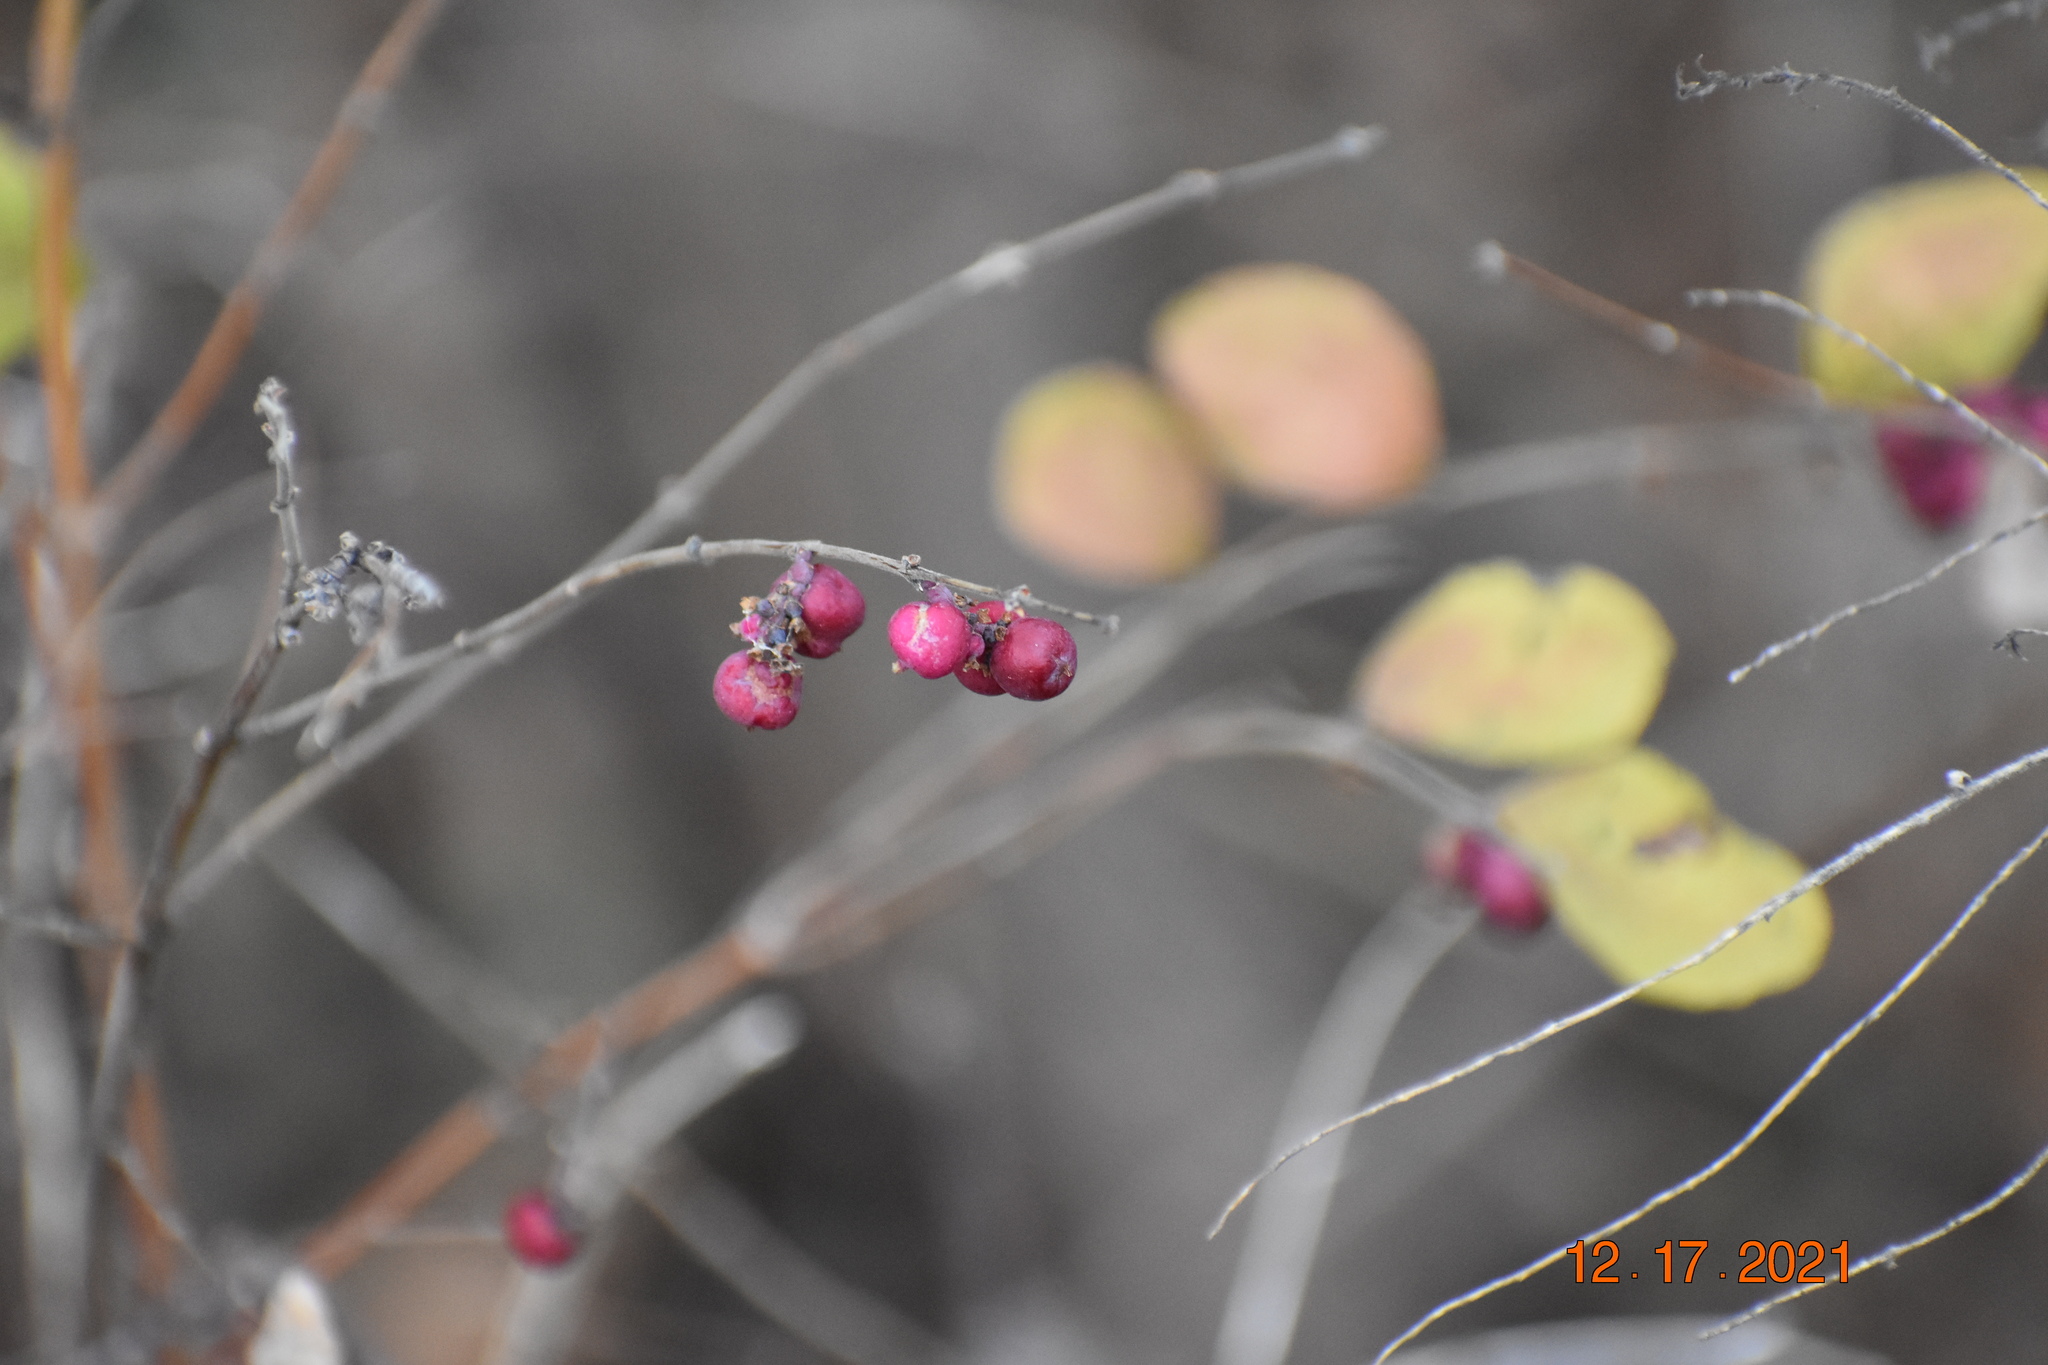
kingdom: Plantae
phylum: Tracheophyta
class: Magnoliopsida
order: Dipsacales
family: Caprifoliaceae
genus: Symphoricarpos
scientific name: Symphoricarpos orbiculatus
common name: Coralberry
